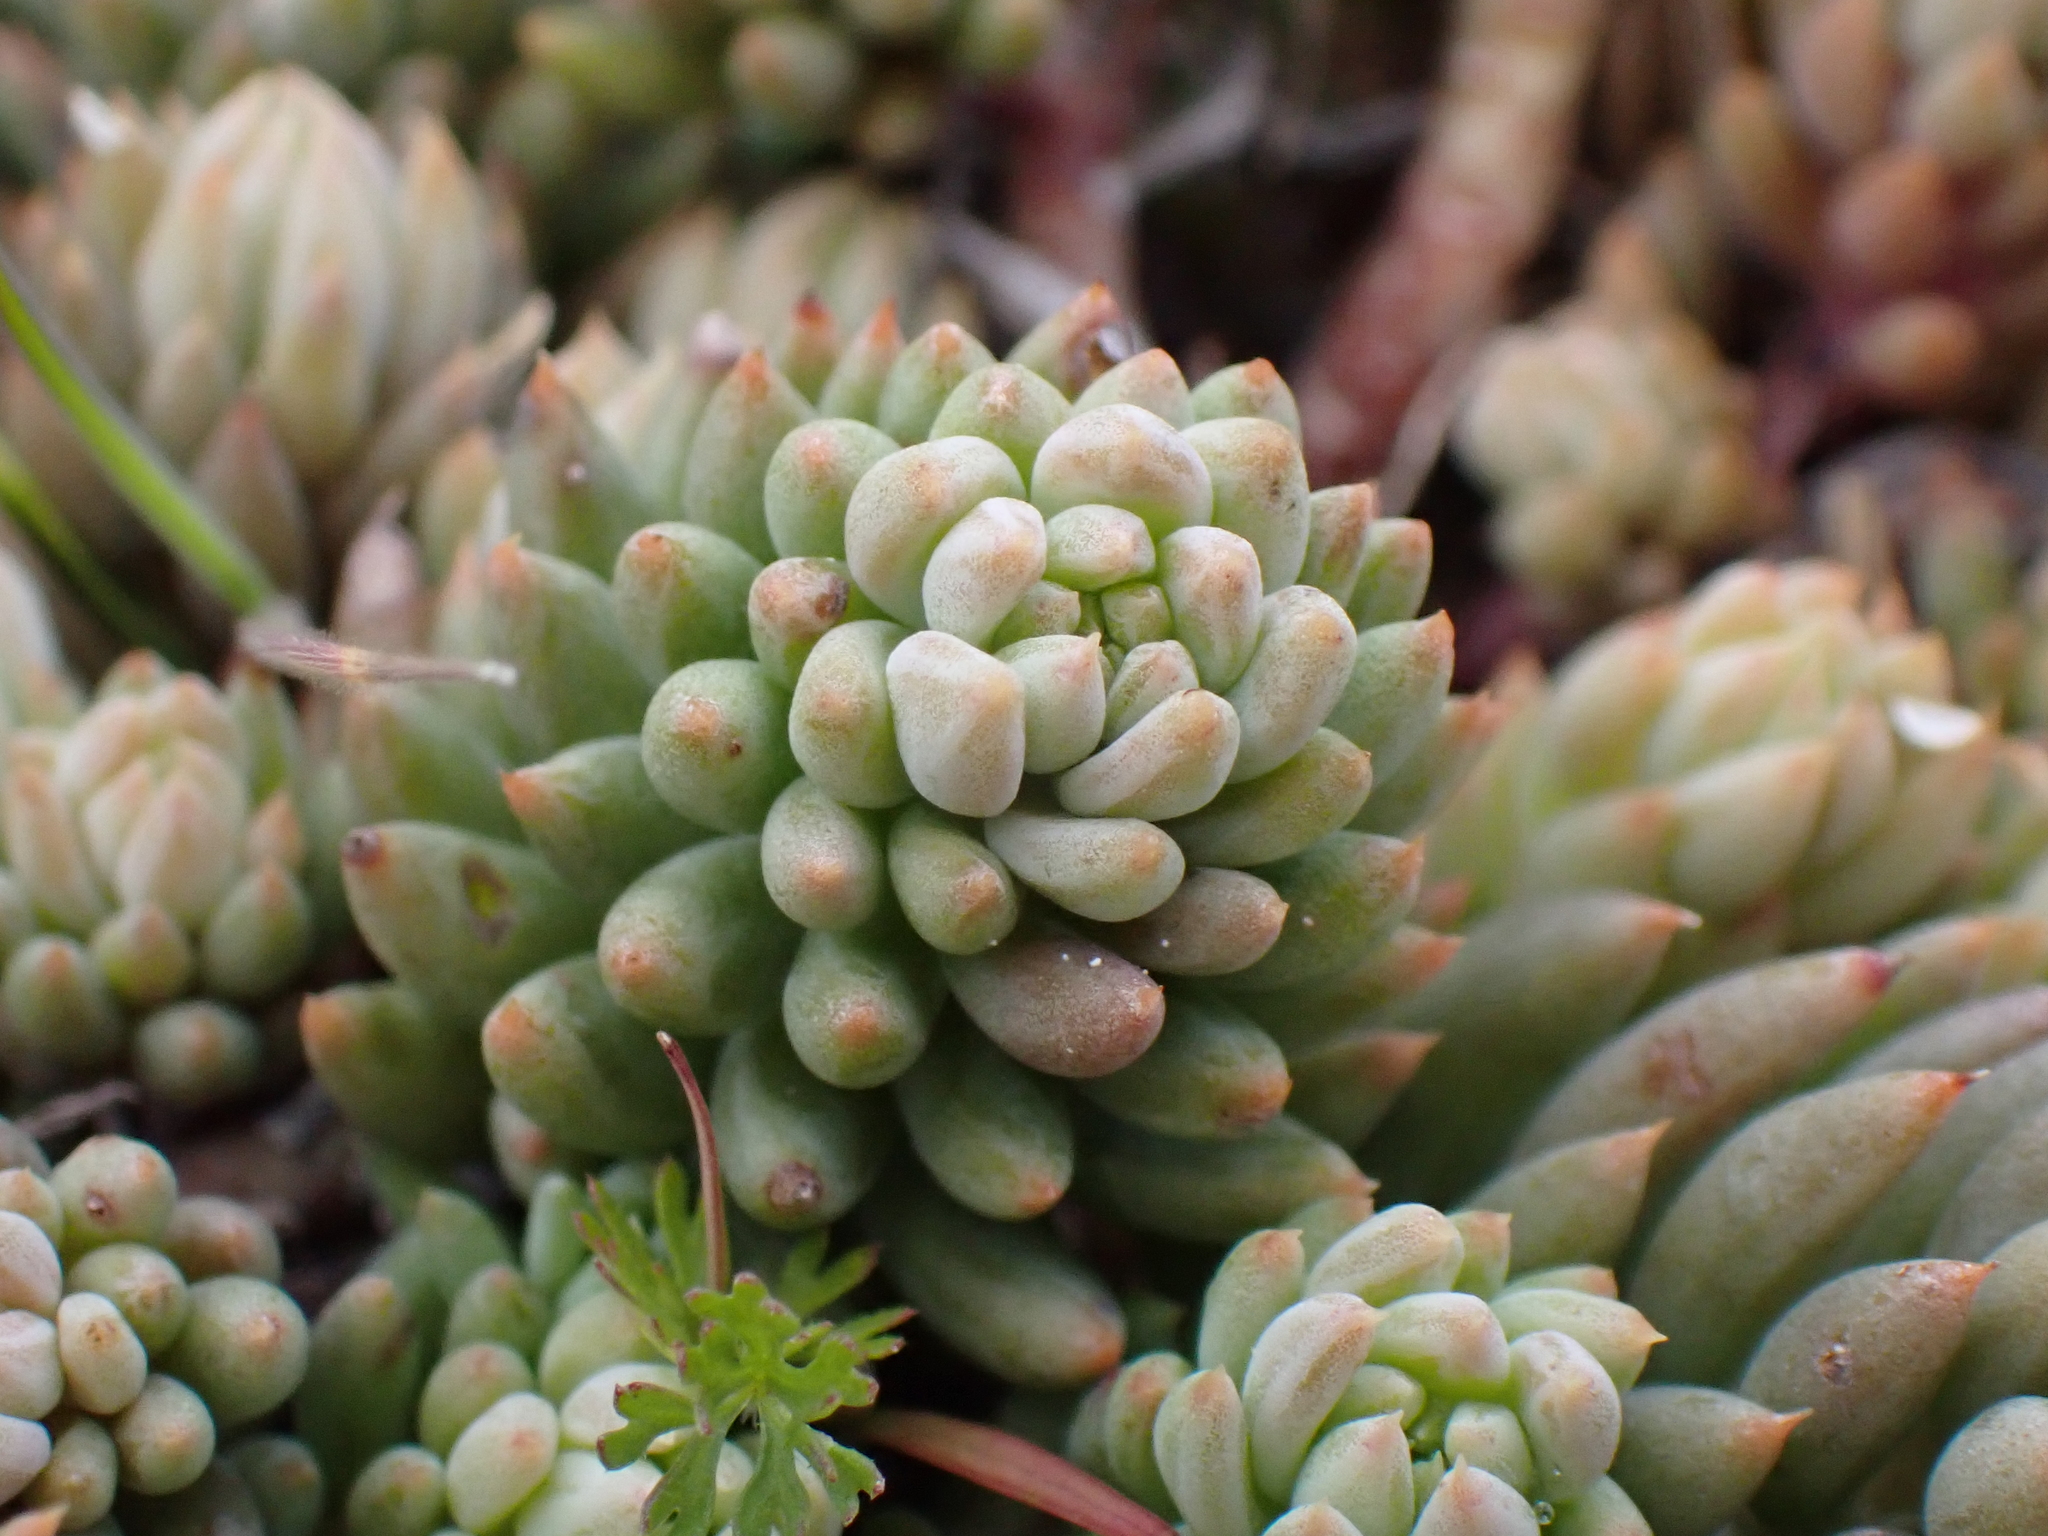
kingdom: Plantae
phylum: Tracheophyta
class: Magnoliopsida
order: Saxifragales
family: Crassulaceae
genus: Petrosedum
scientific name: Petrosedum sediforme
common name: Pale stonecrop
